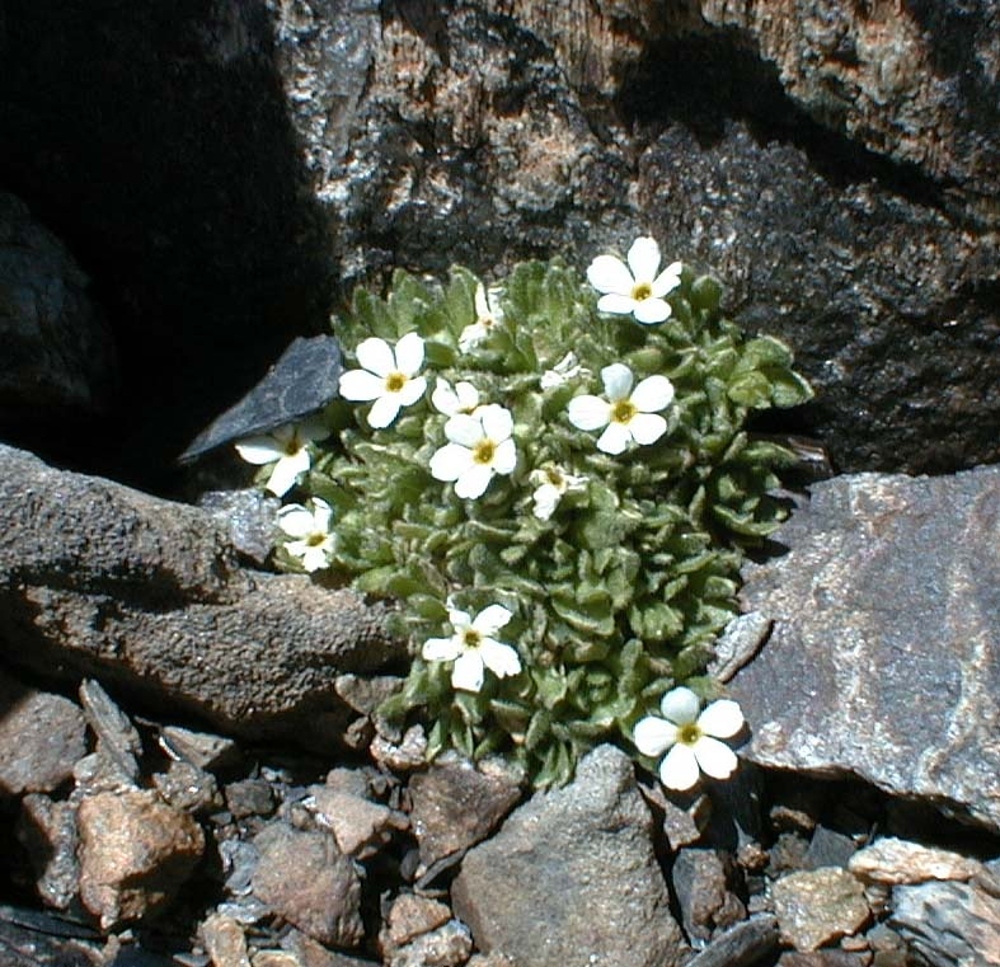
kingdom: Plantae
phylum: Tracheophyta
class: Magnoliopsida
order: Ericales
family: Primulaceae
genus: Androsace
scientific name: Androsace delphinensis
